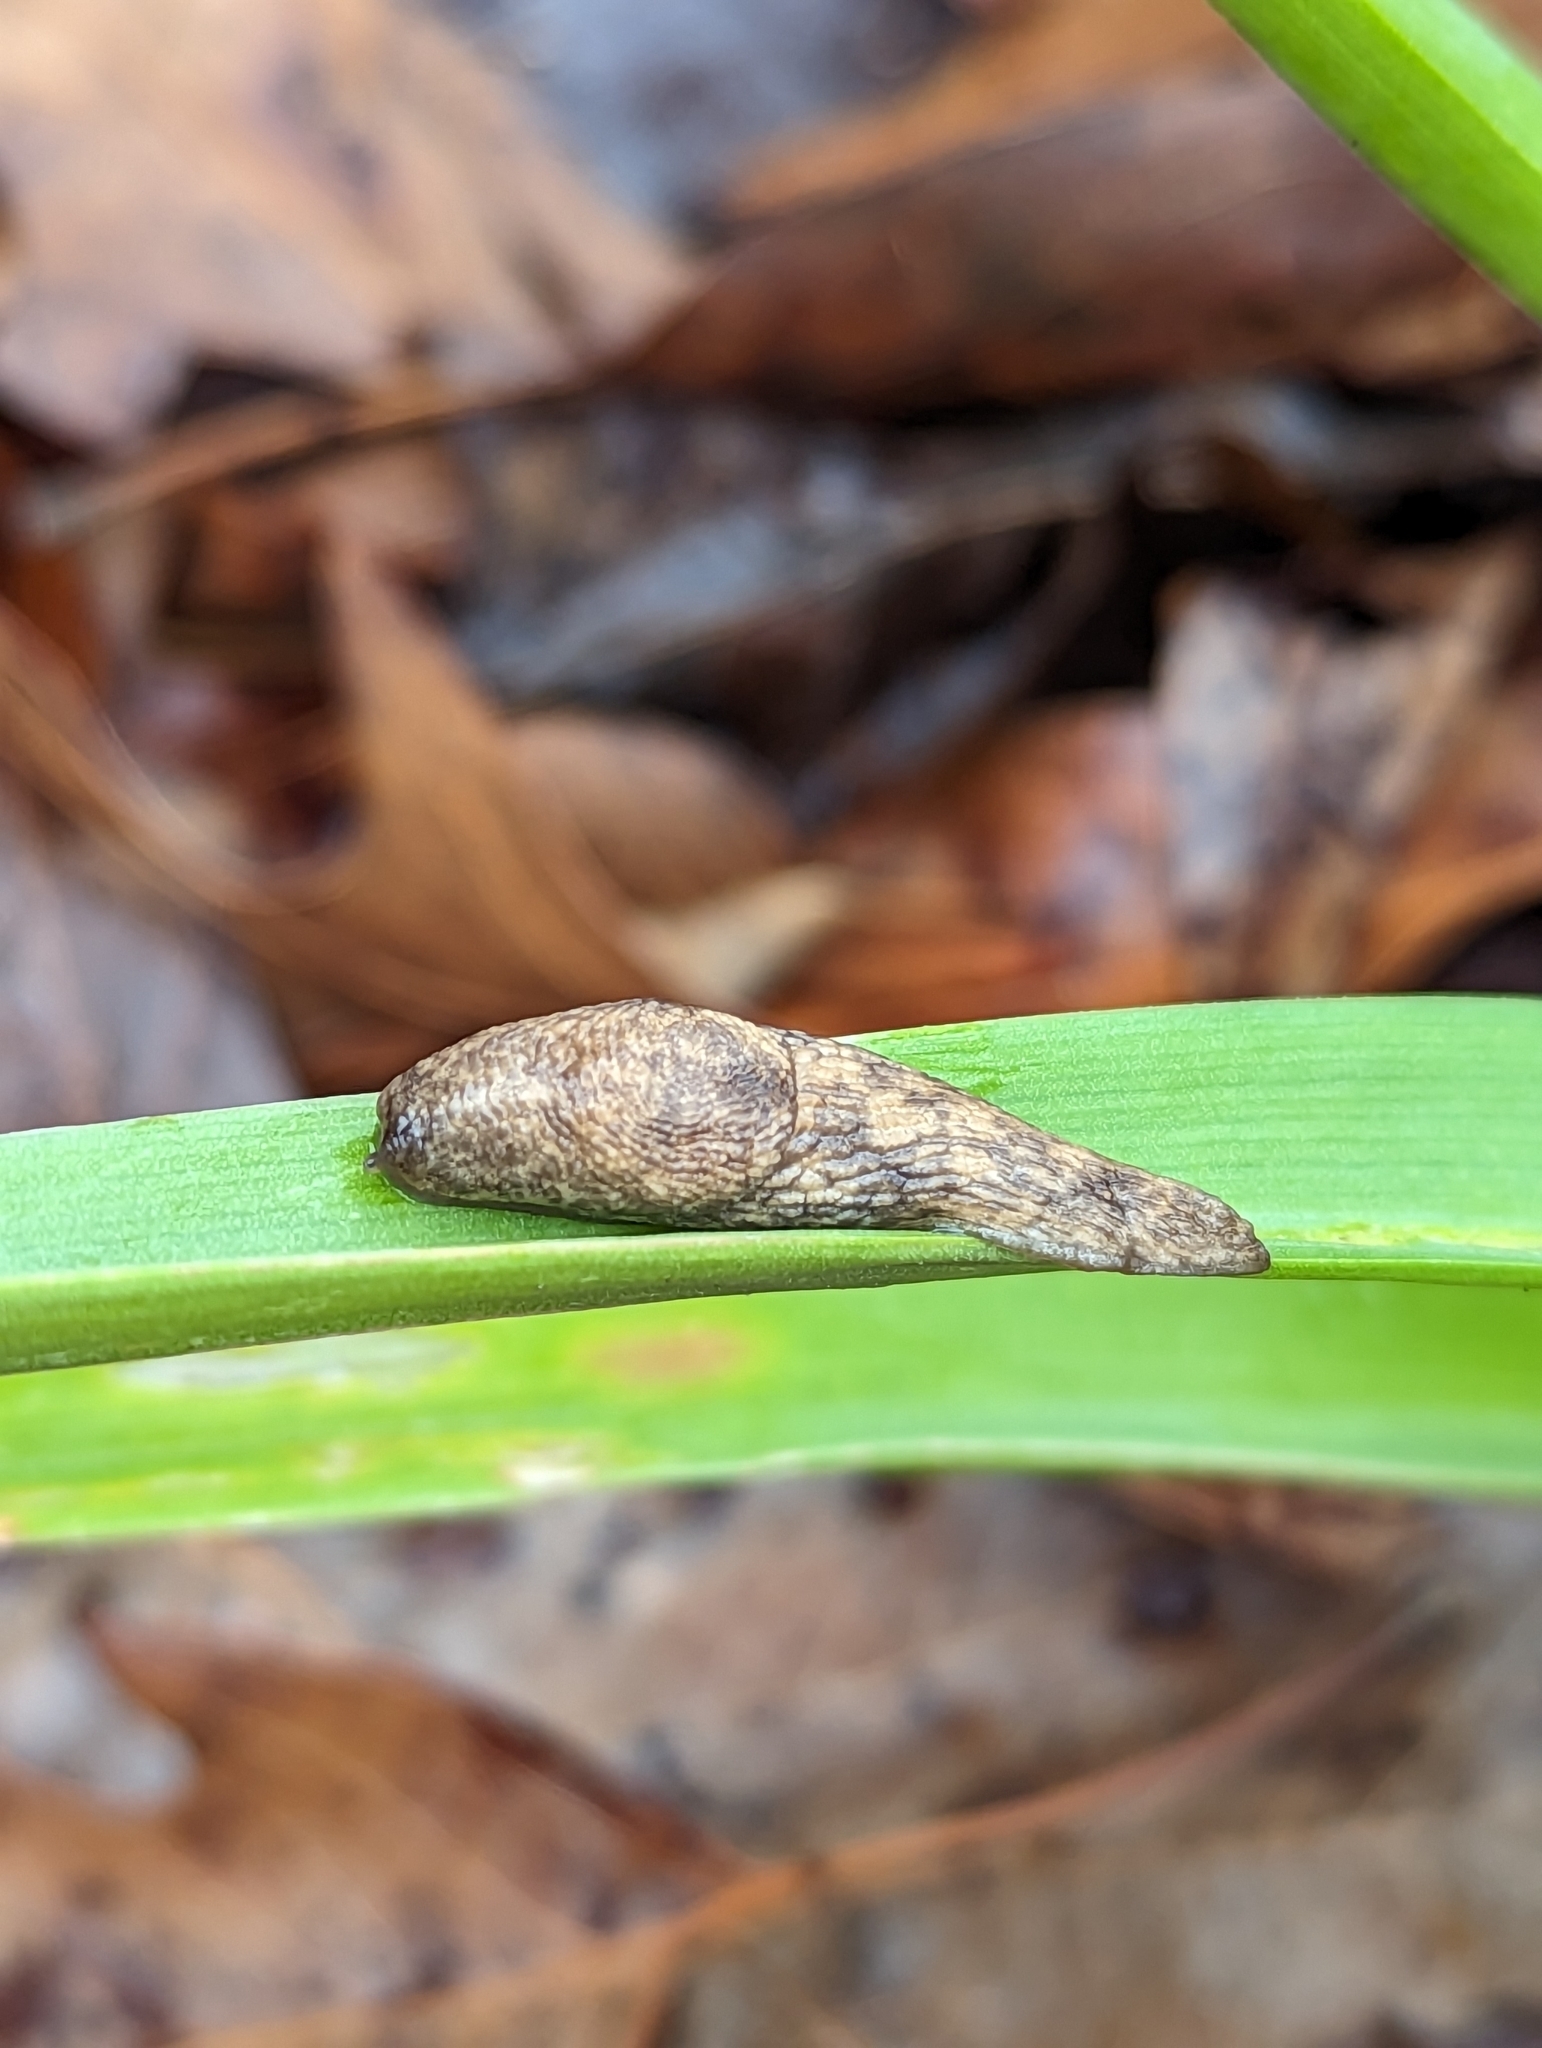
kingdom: Animalia
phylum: Mollusca
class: Gastropoda
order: Stylommatophora
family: Agriolimacidae
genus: Deroceras
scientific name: Deroceras reticulatum
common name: Gray field slug
